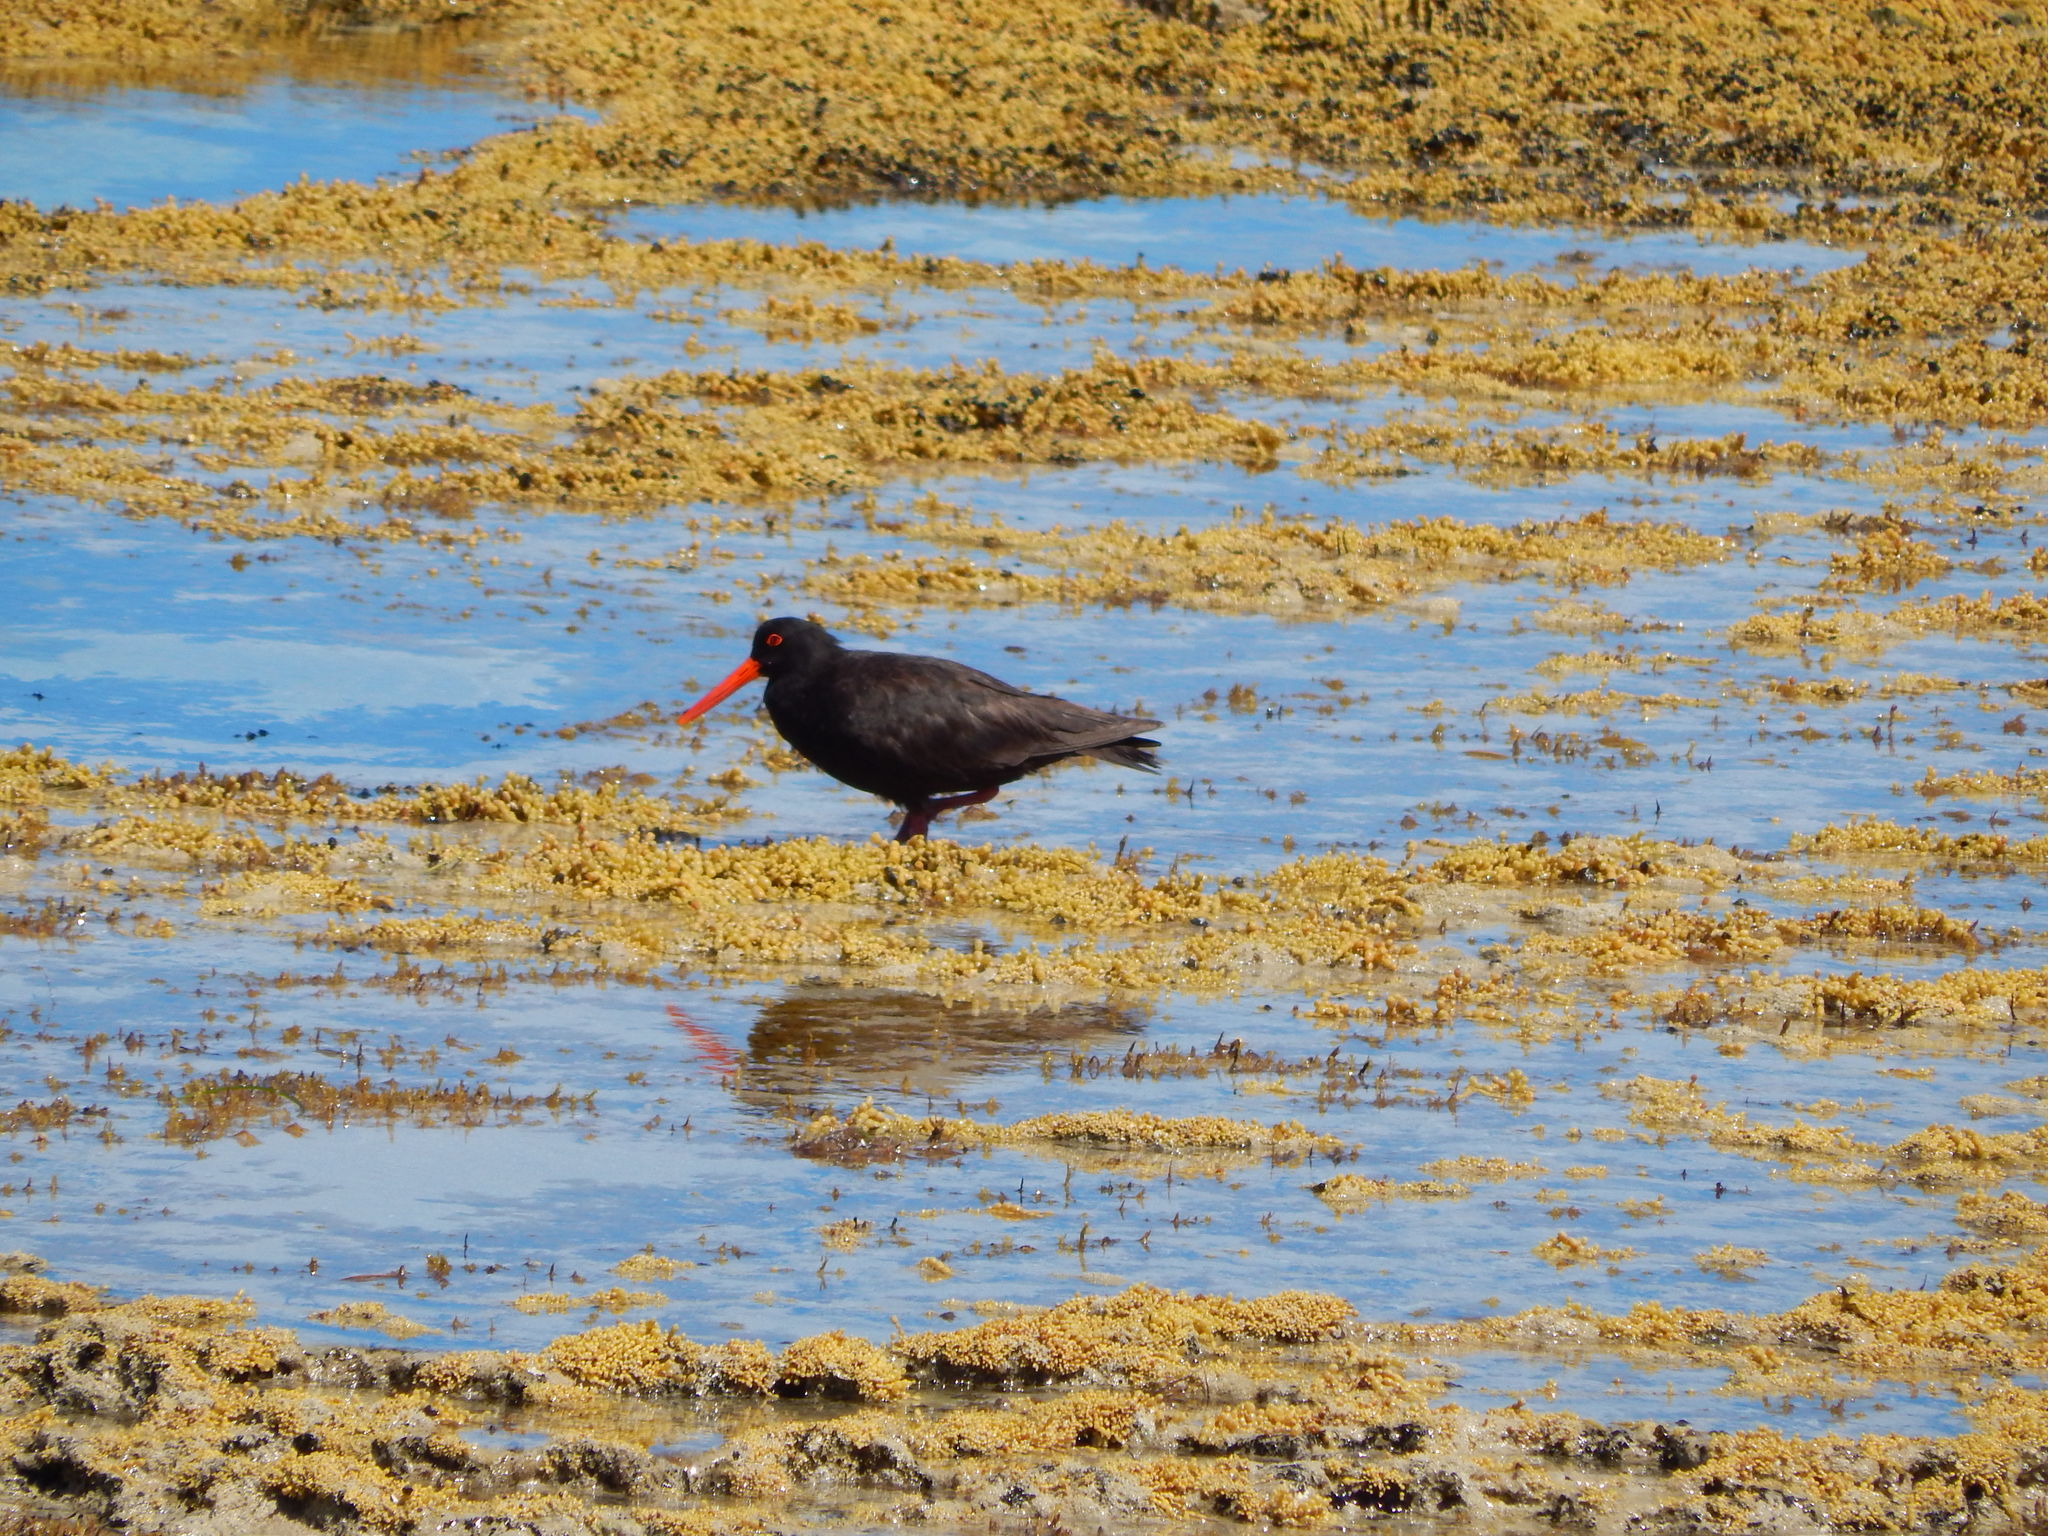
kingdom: Animalia
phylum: Chordata
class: Aves
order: Charadriiformes
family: Haematopodidae
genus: Haematopus
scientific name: Haematopus fuliginosus
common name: Sooty oystercatcher
